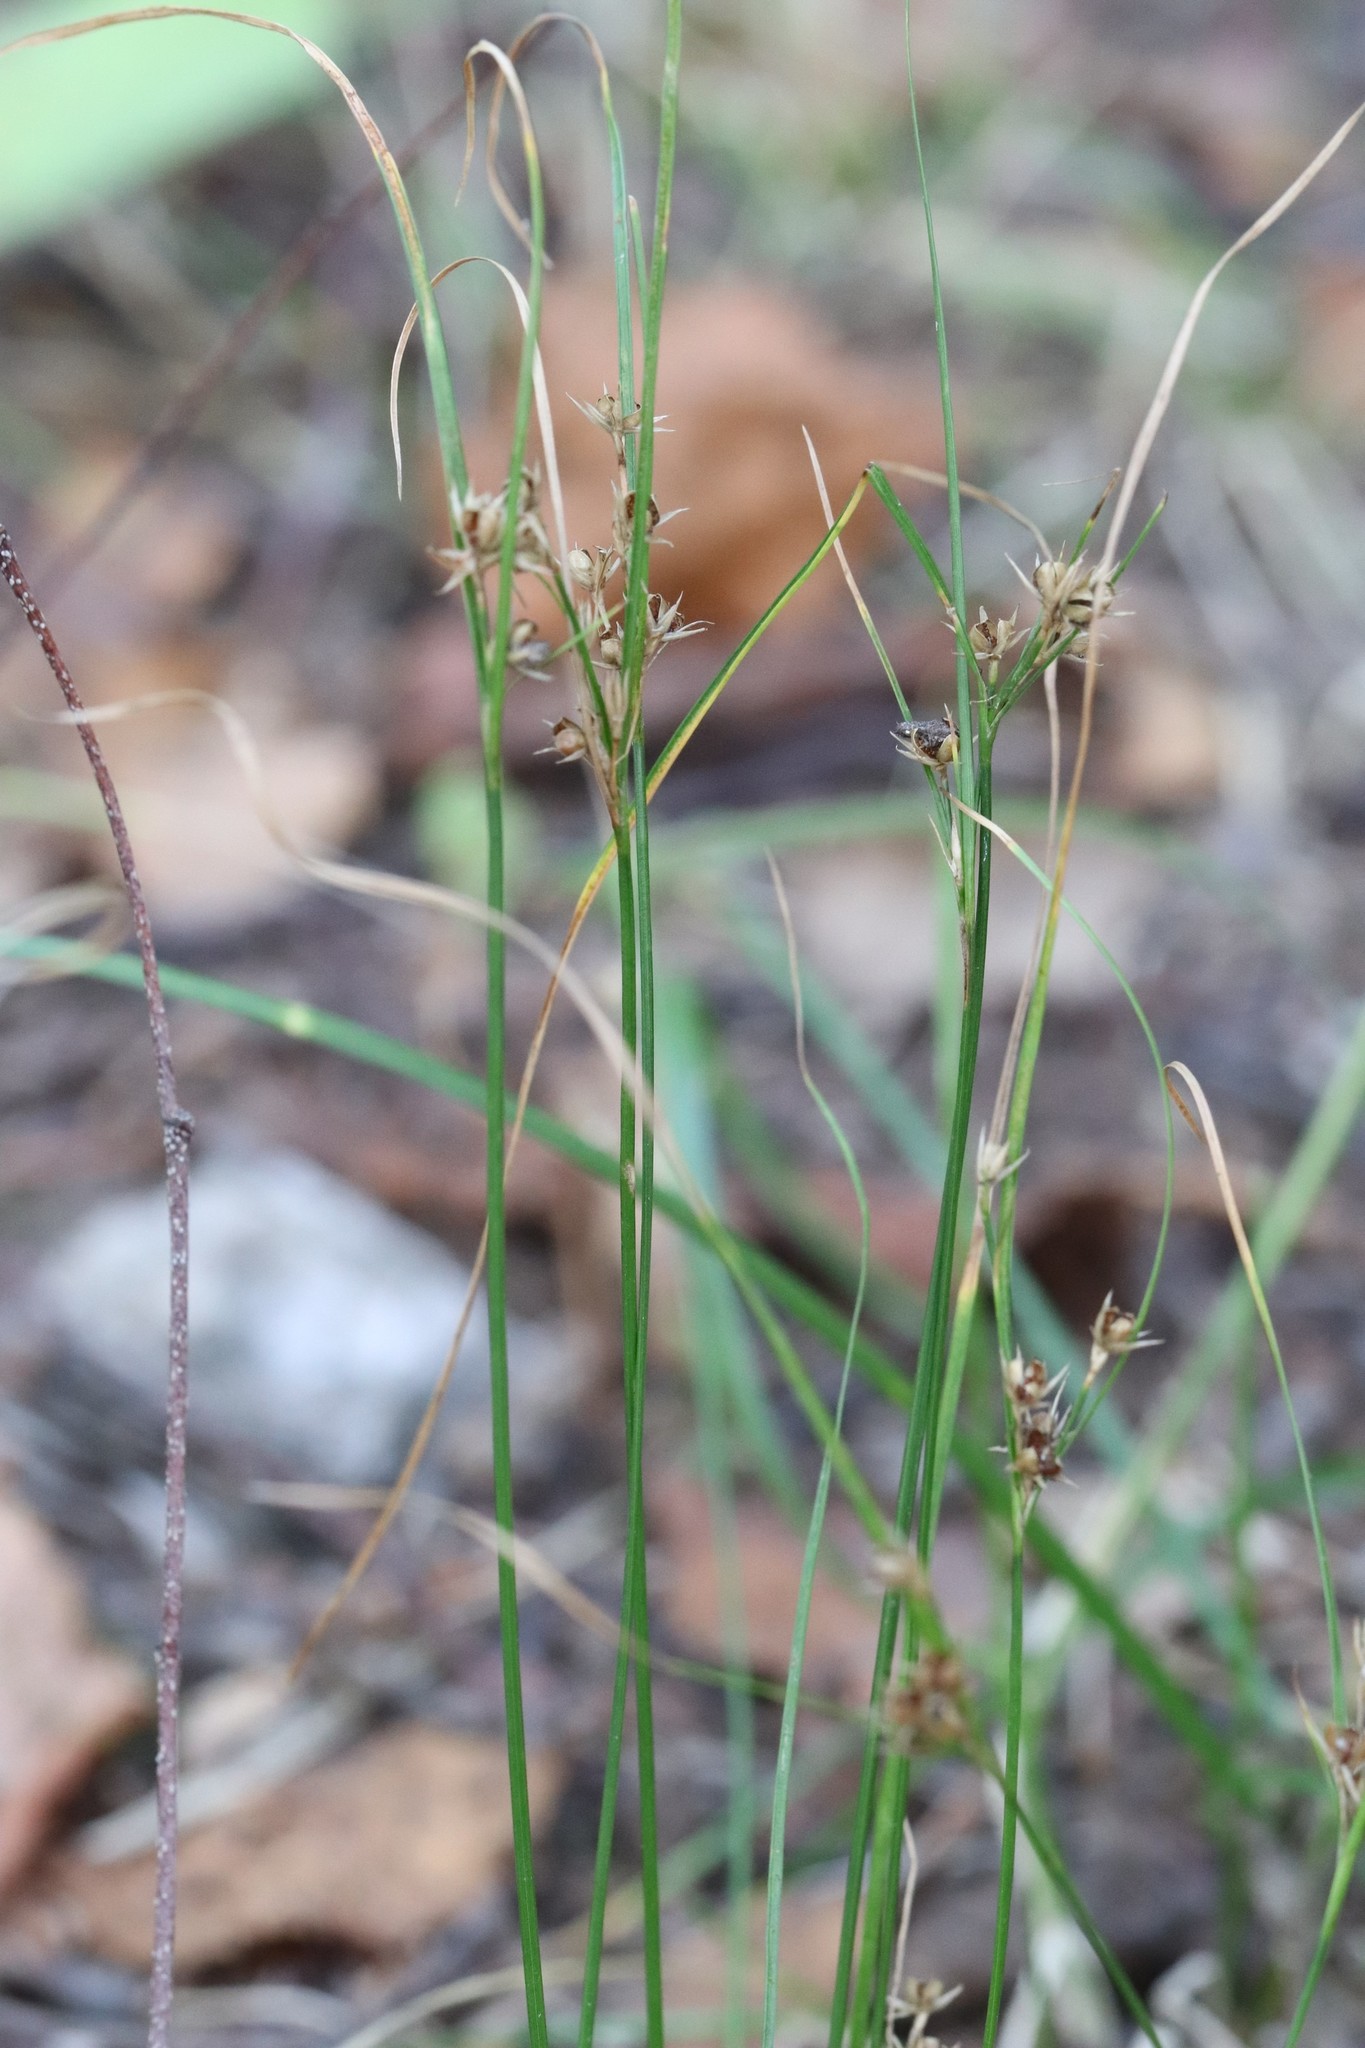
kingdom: Plantae
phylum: Tracheophyta
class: Liliopsida
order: Poales
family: Juncaceae
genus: Juncus
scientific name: Juncus tenuis
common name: Slender rush
